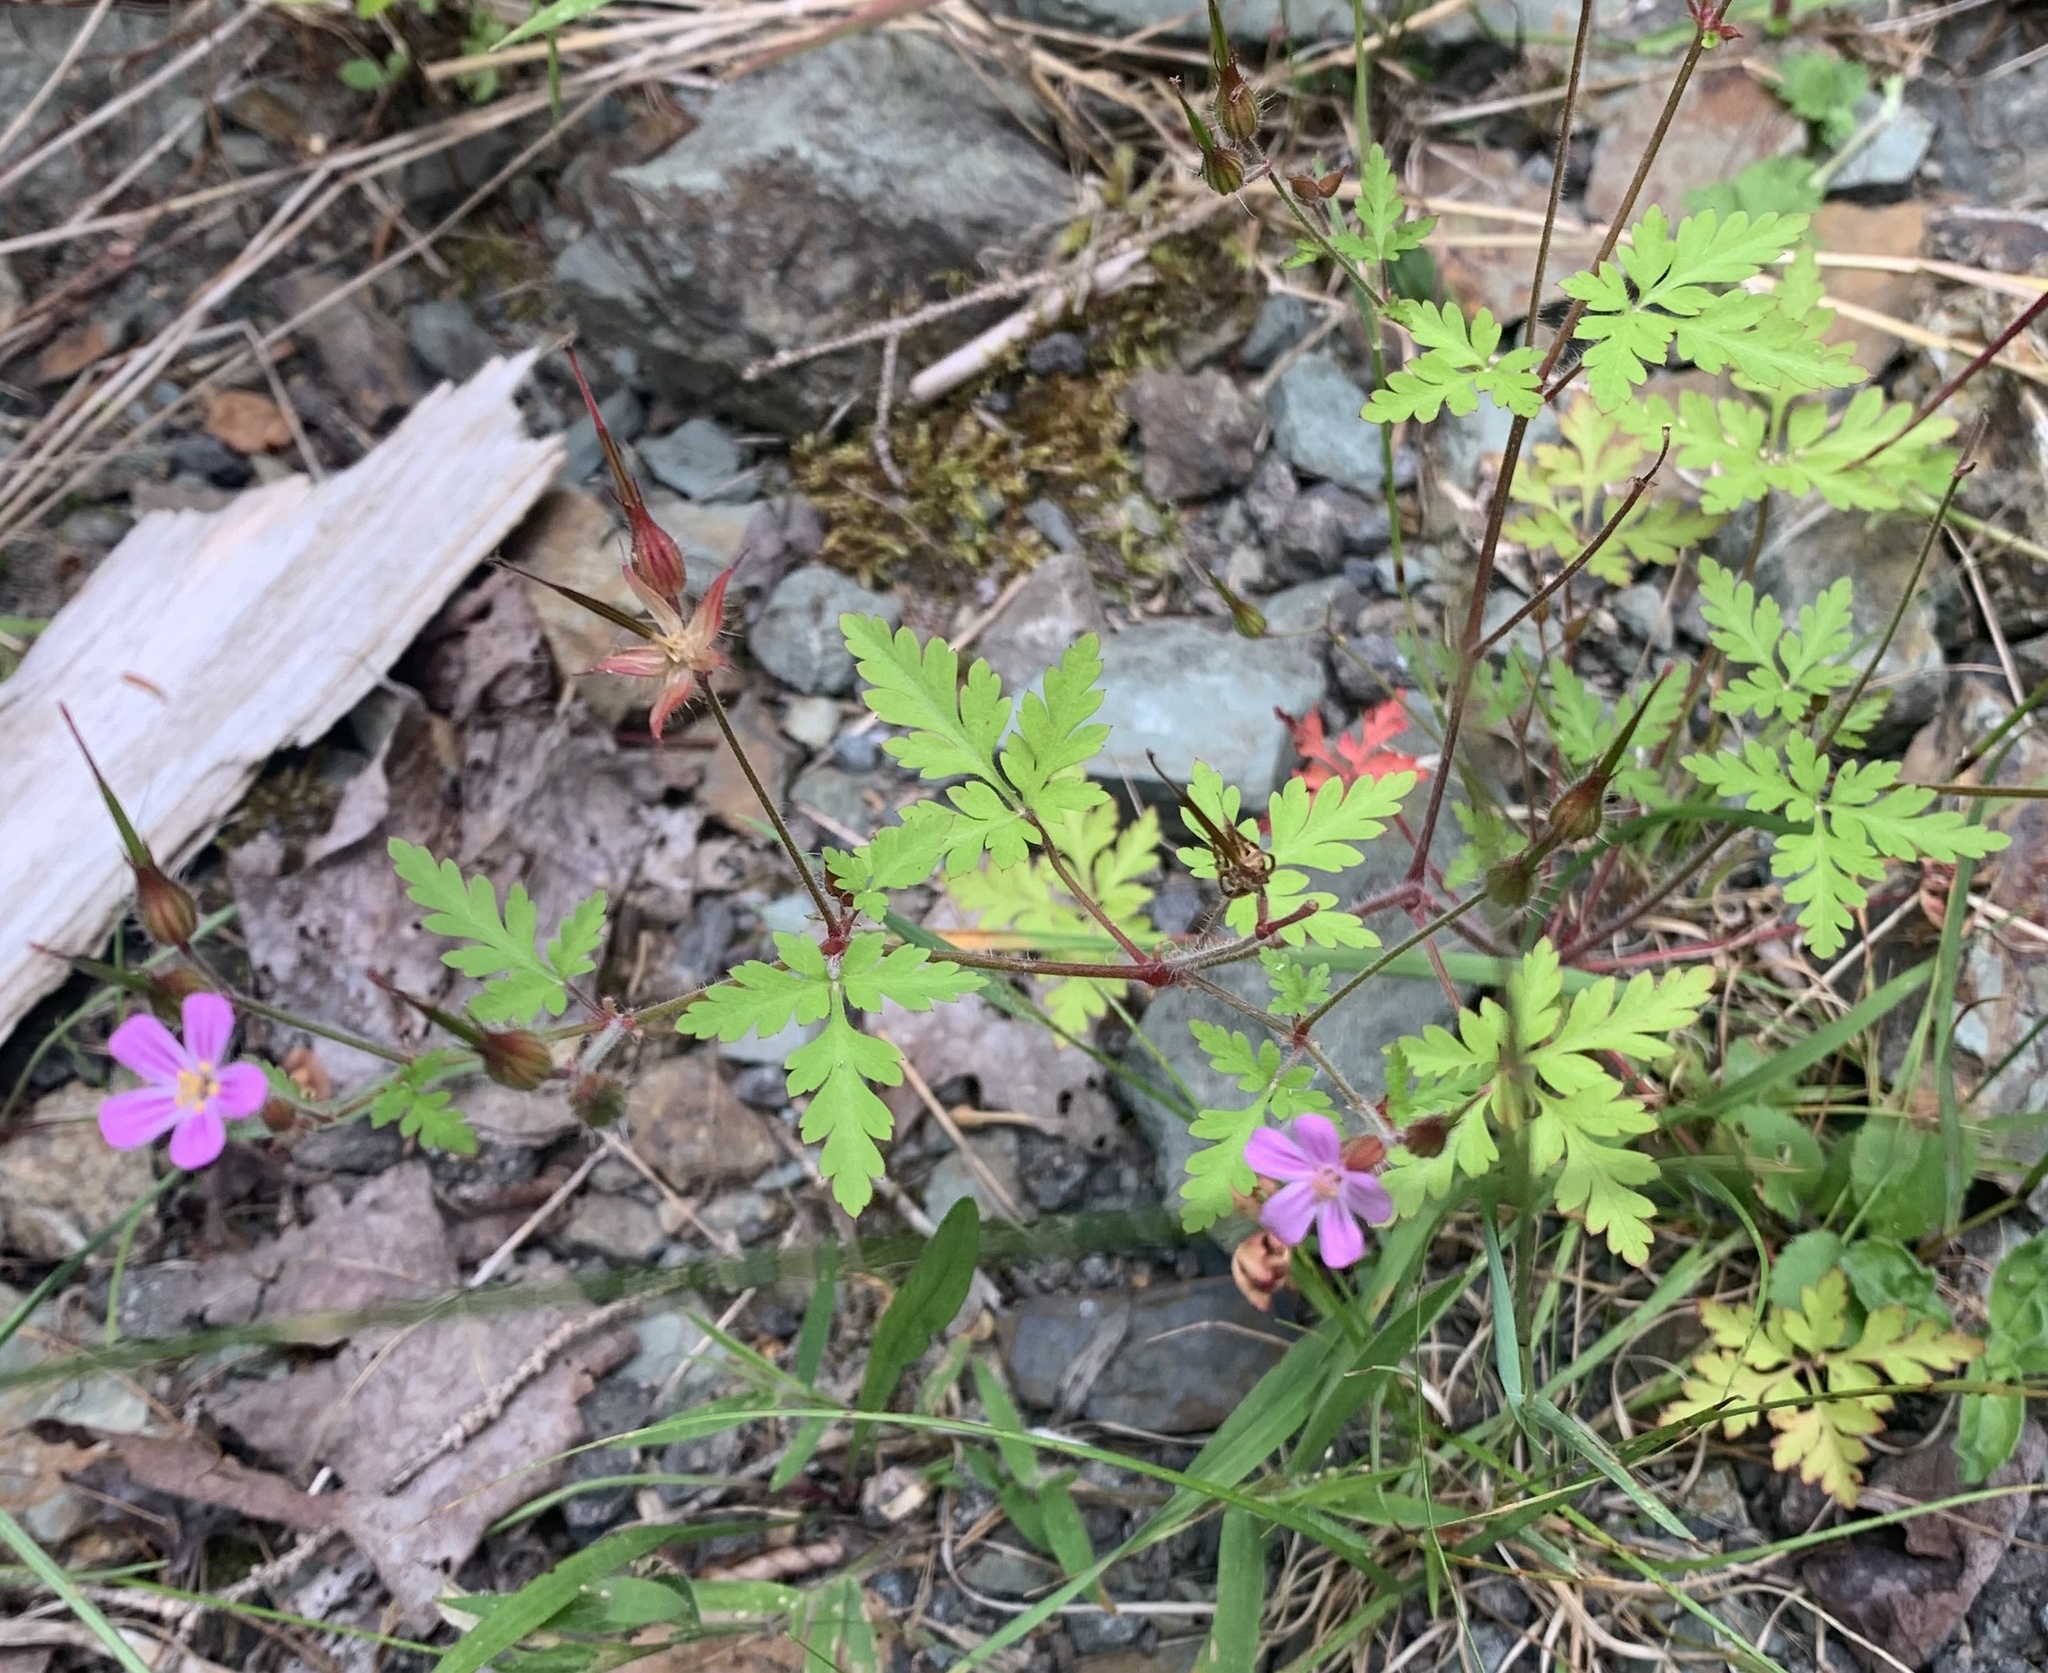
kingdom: Plantae
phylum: Tracheophyta
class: Magnoliopsida
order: Geraniales
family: Geraniaceae
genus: Geranium
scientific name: Geranium robertianum
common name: Herb-robert
